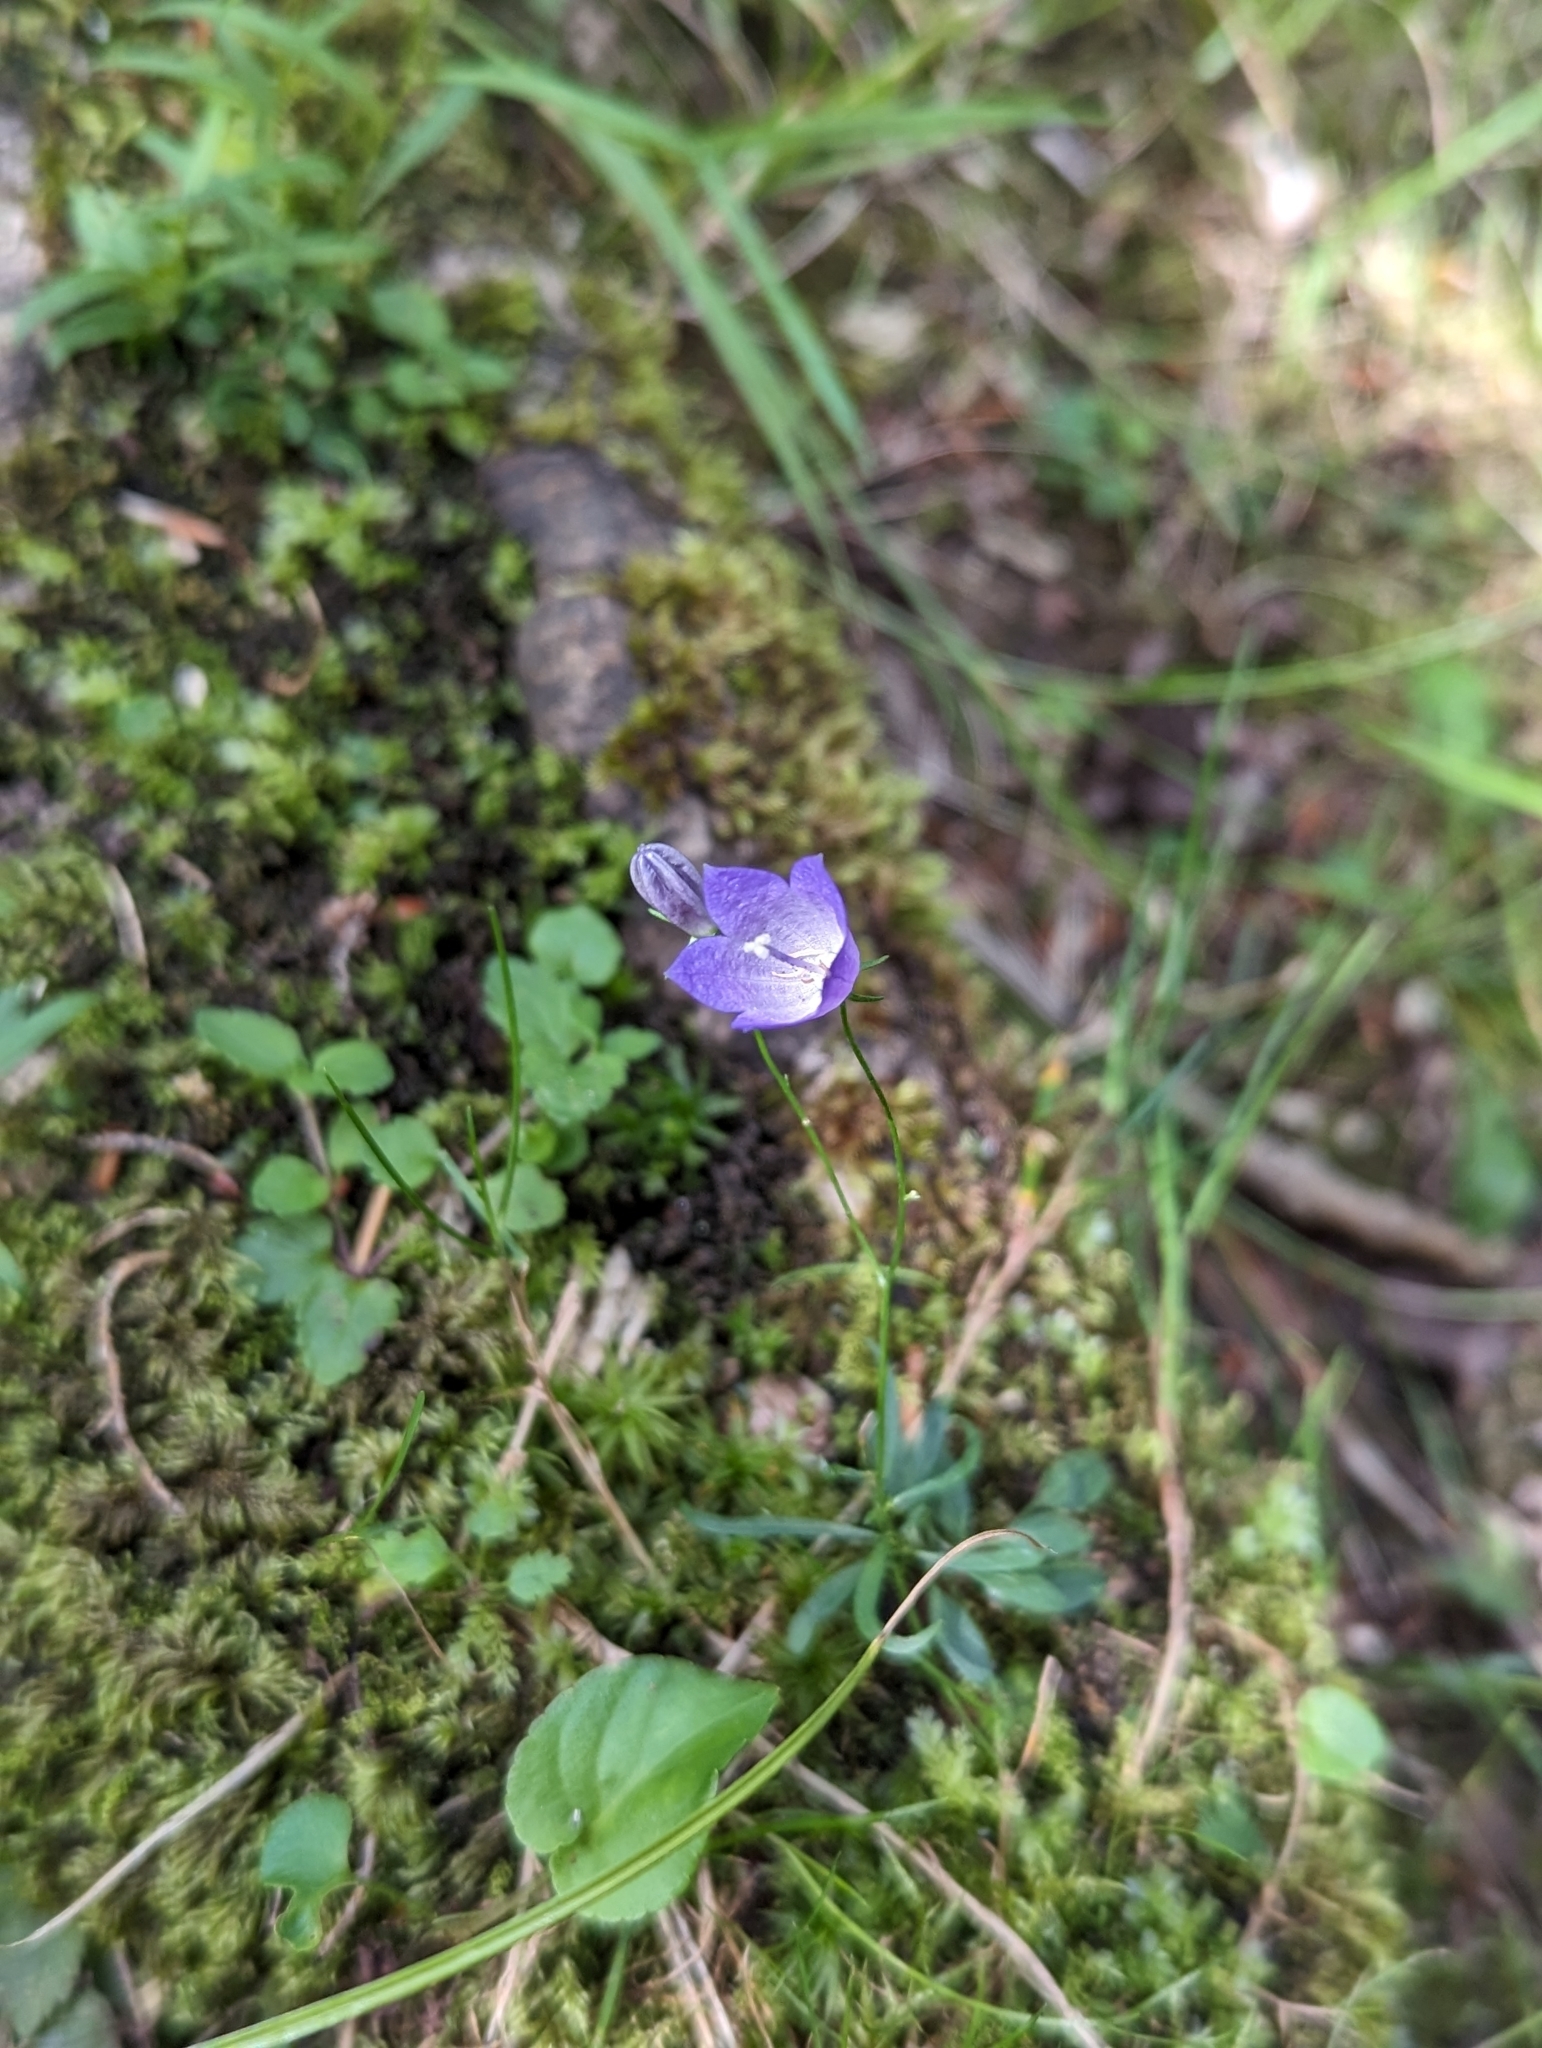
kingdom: Plantae
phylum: Tracheophyta
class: Magnoliopsida
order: Asterales
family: Campanulaceae
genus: Campanula
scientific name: Campanula rotundifolia
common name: Harebell
